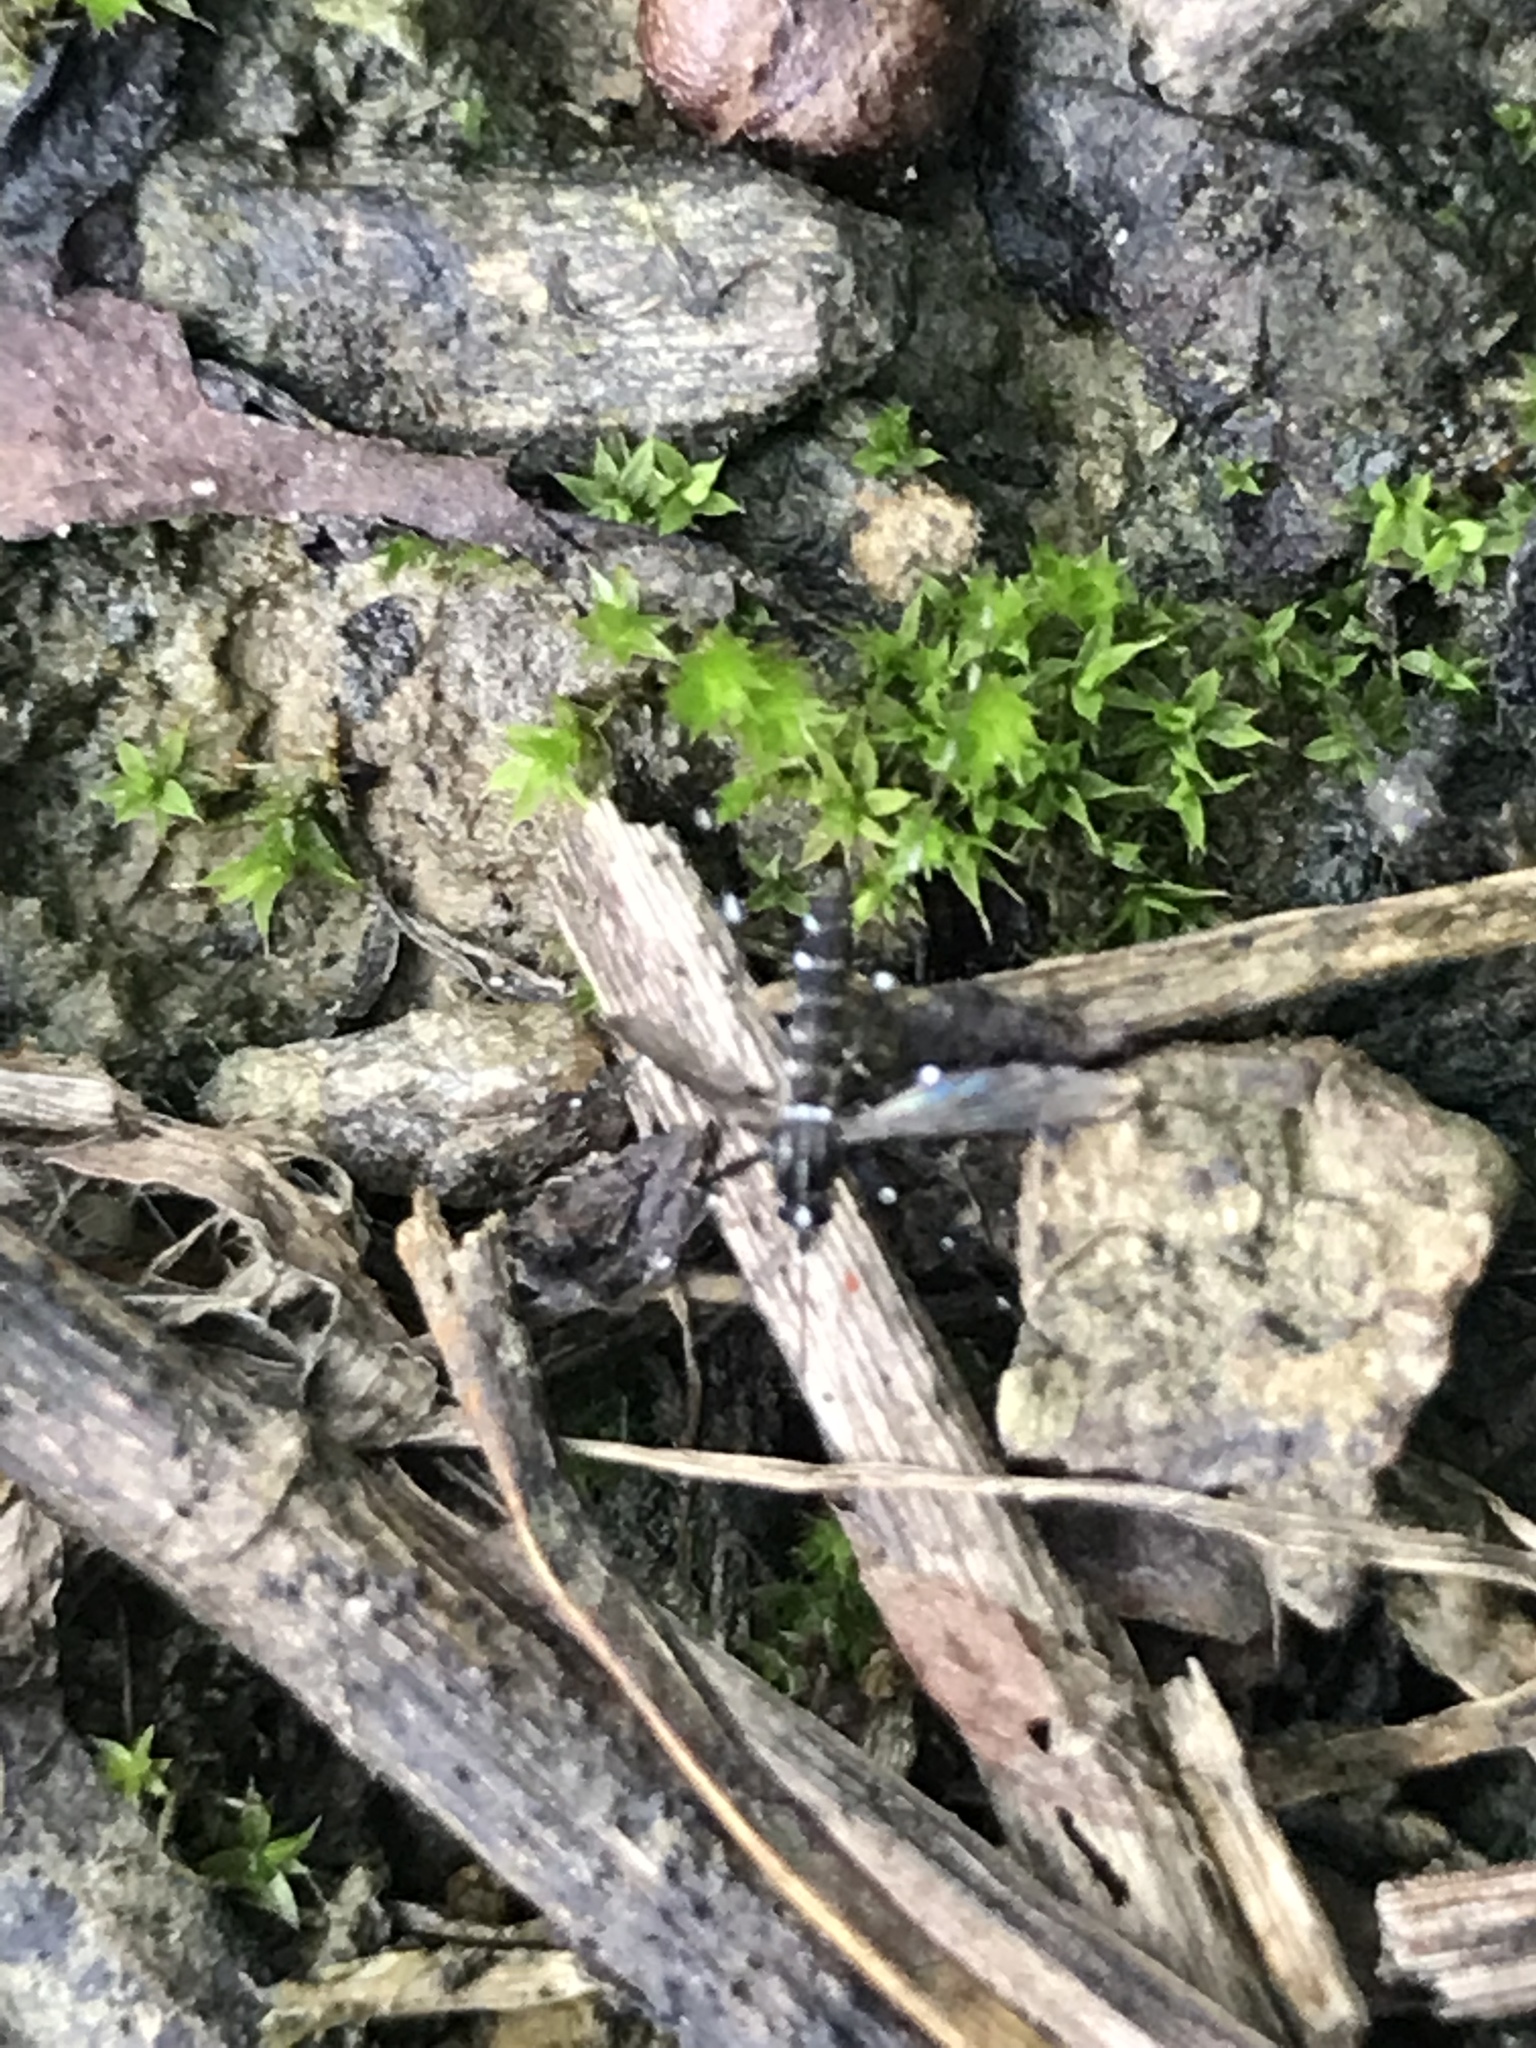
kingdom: Animalia
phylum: Arthropoda
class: Insecta
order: Diptera
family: Culicidae
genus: Aedes
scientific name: Aedes albopictus
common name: Tiger mosquito
